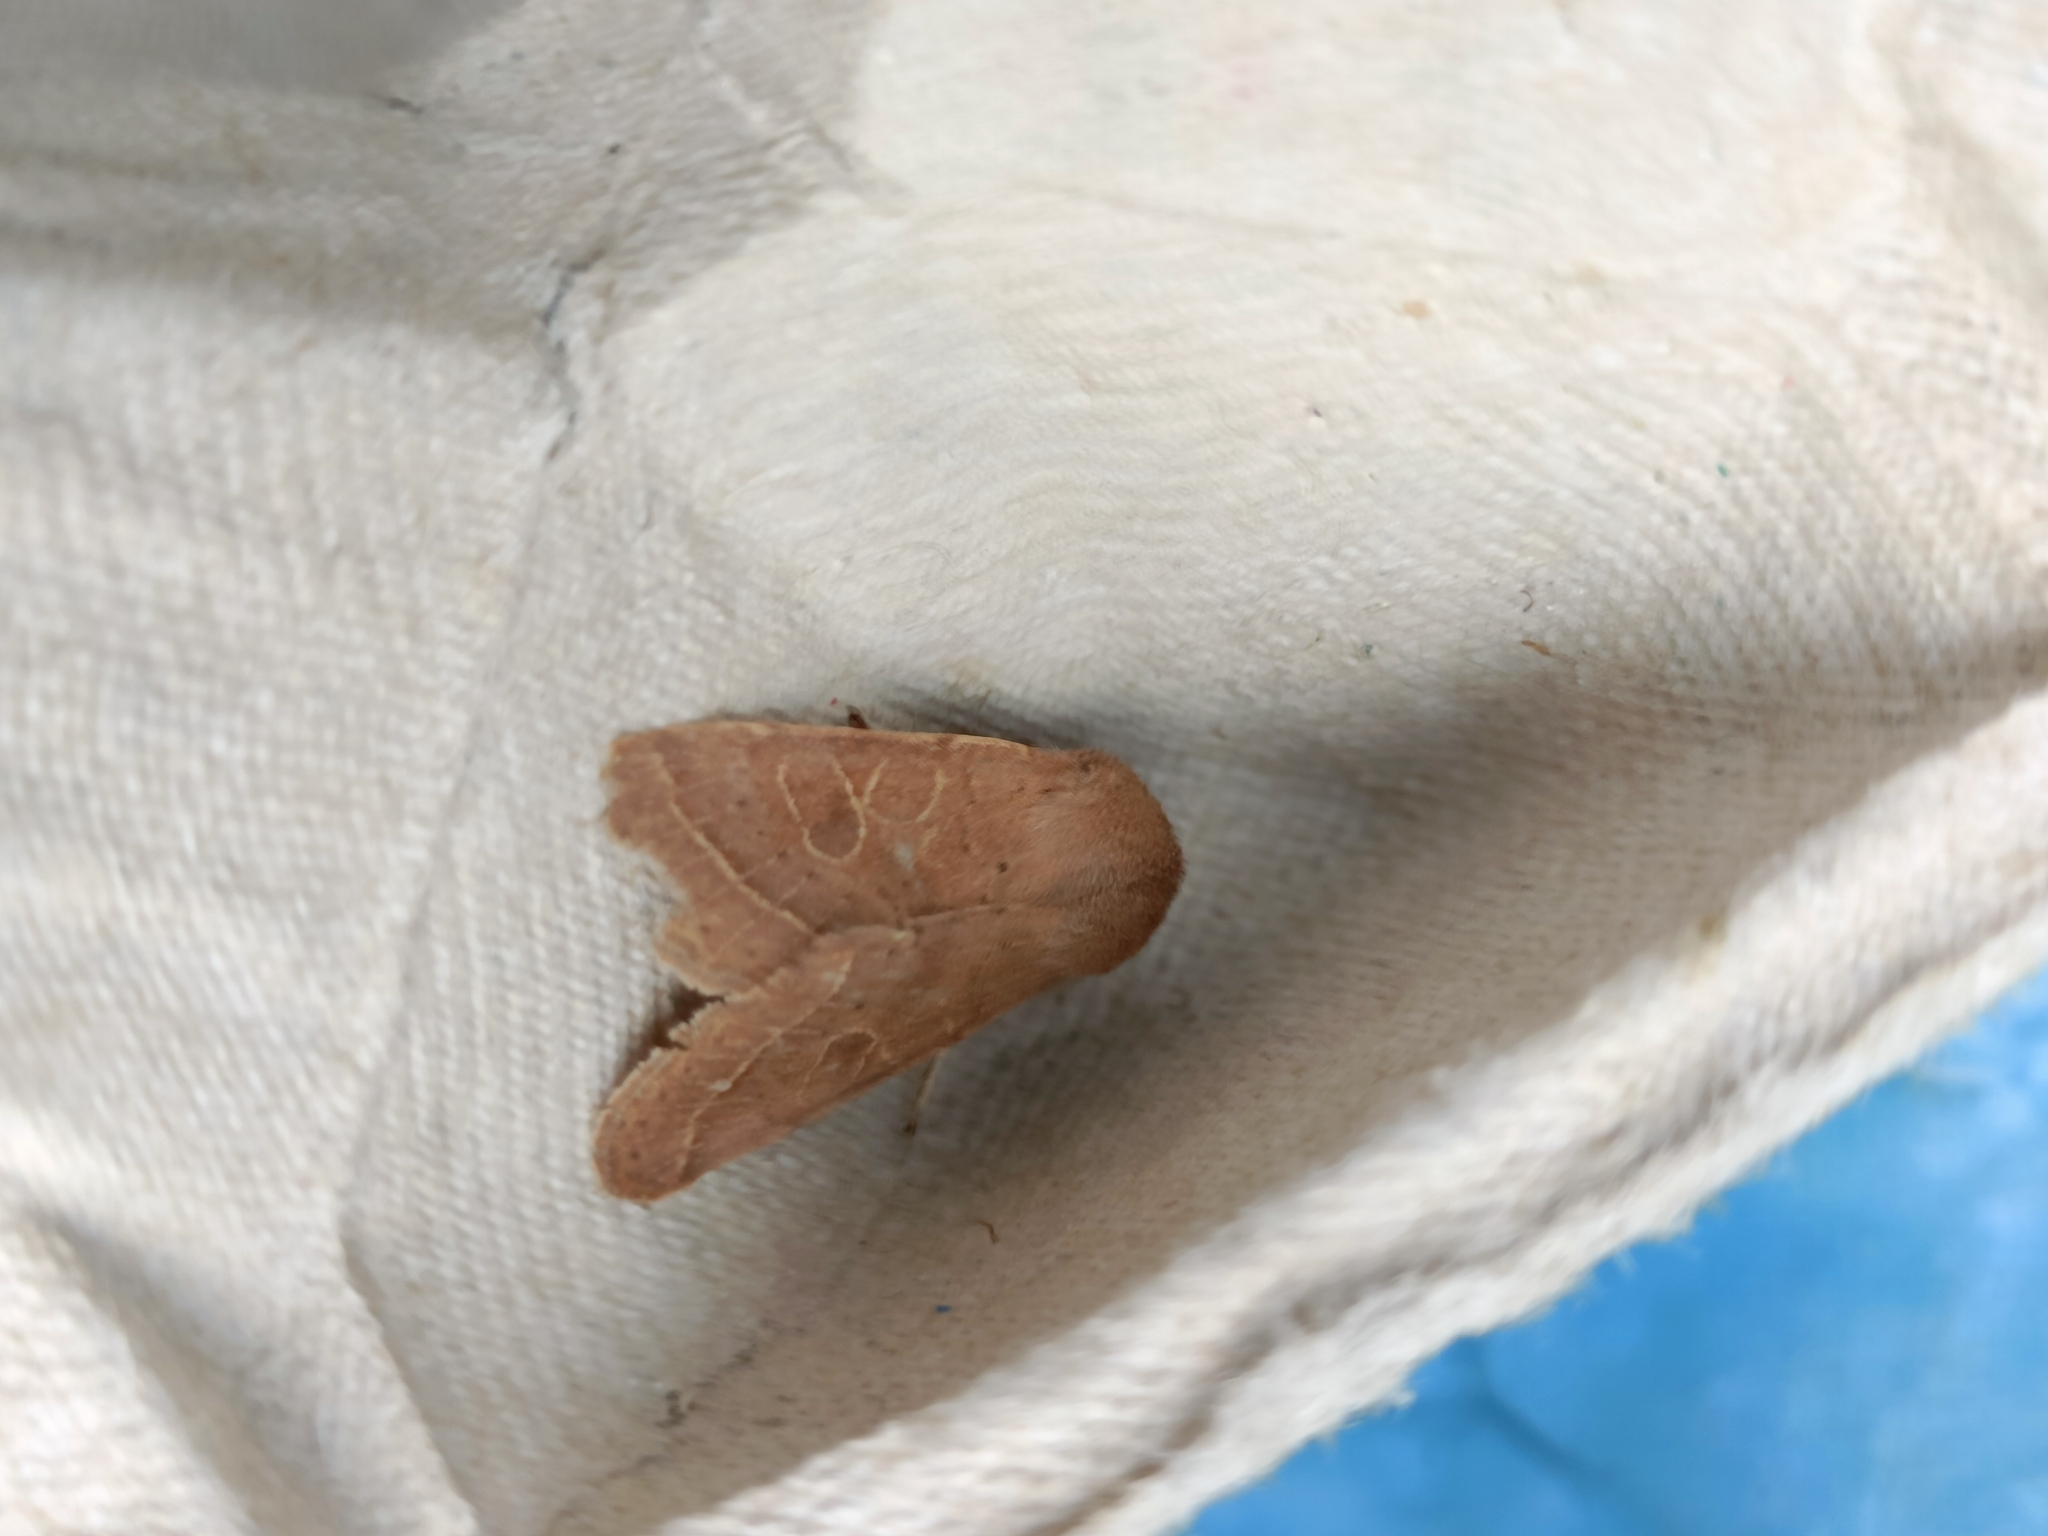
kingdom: Animalia
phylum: Arthropoda
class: Insecta
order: Lepidoptera
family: Noctuidae
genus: Orthosia
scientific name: Orthosia cerasi
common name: Common quaker
